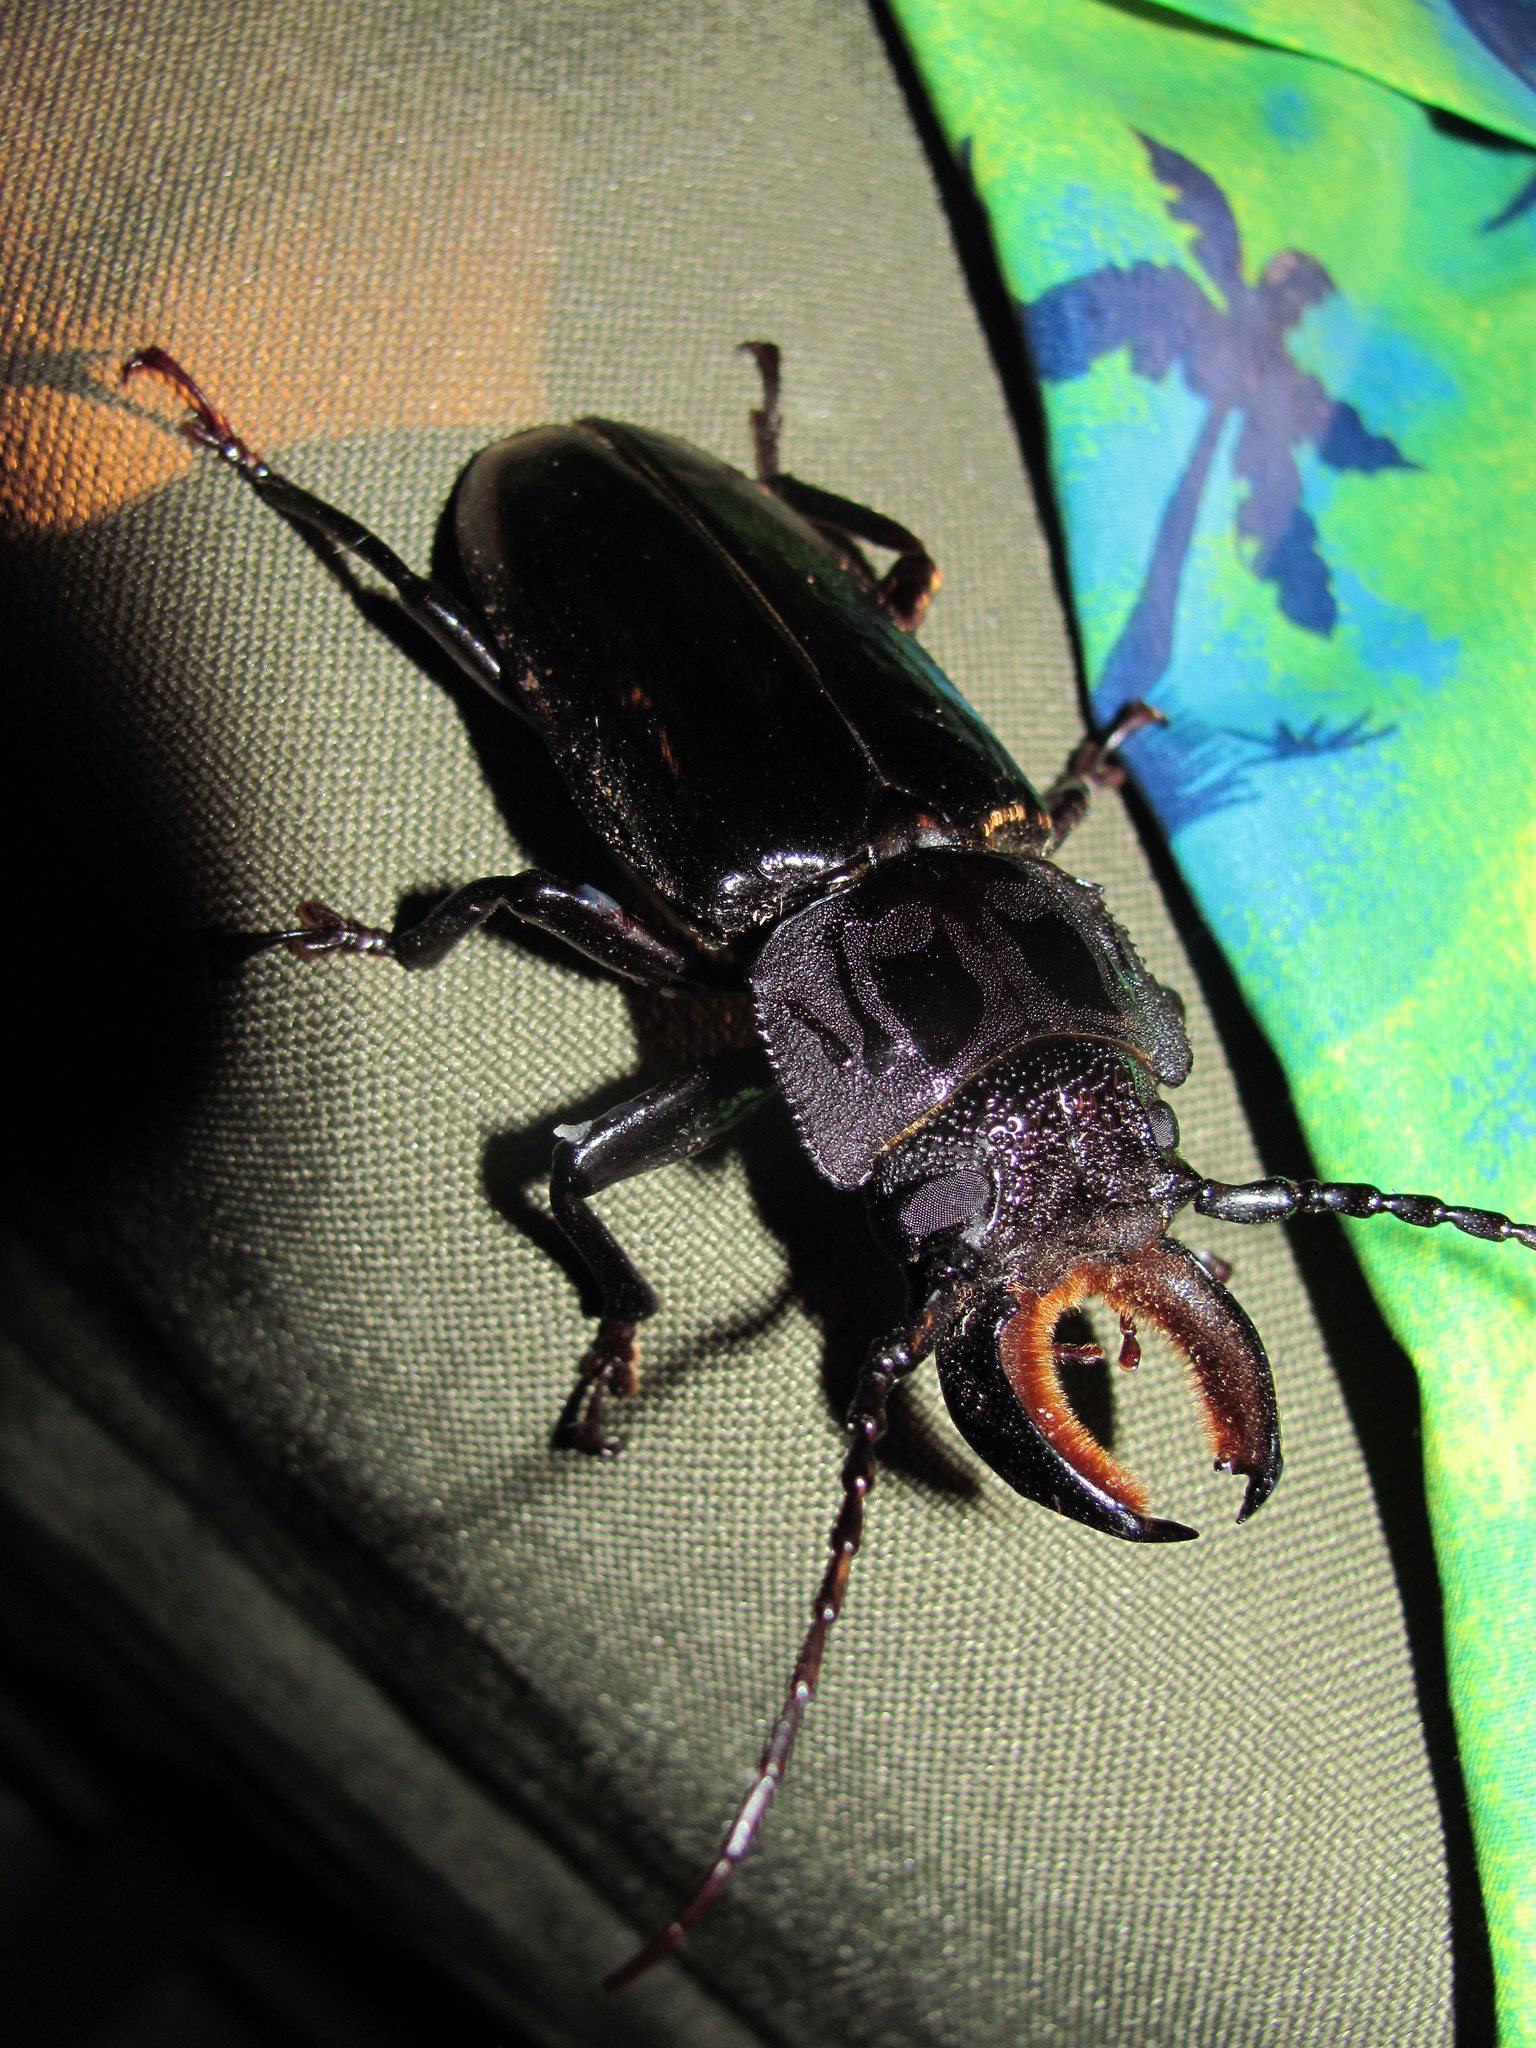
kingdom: Animalia
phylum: Arthropoda
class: Insecta
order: Coleoptera
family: Cerambycidae
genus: Mallodon
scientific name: Mallodon chevrolatii
